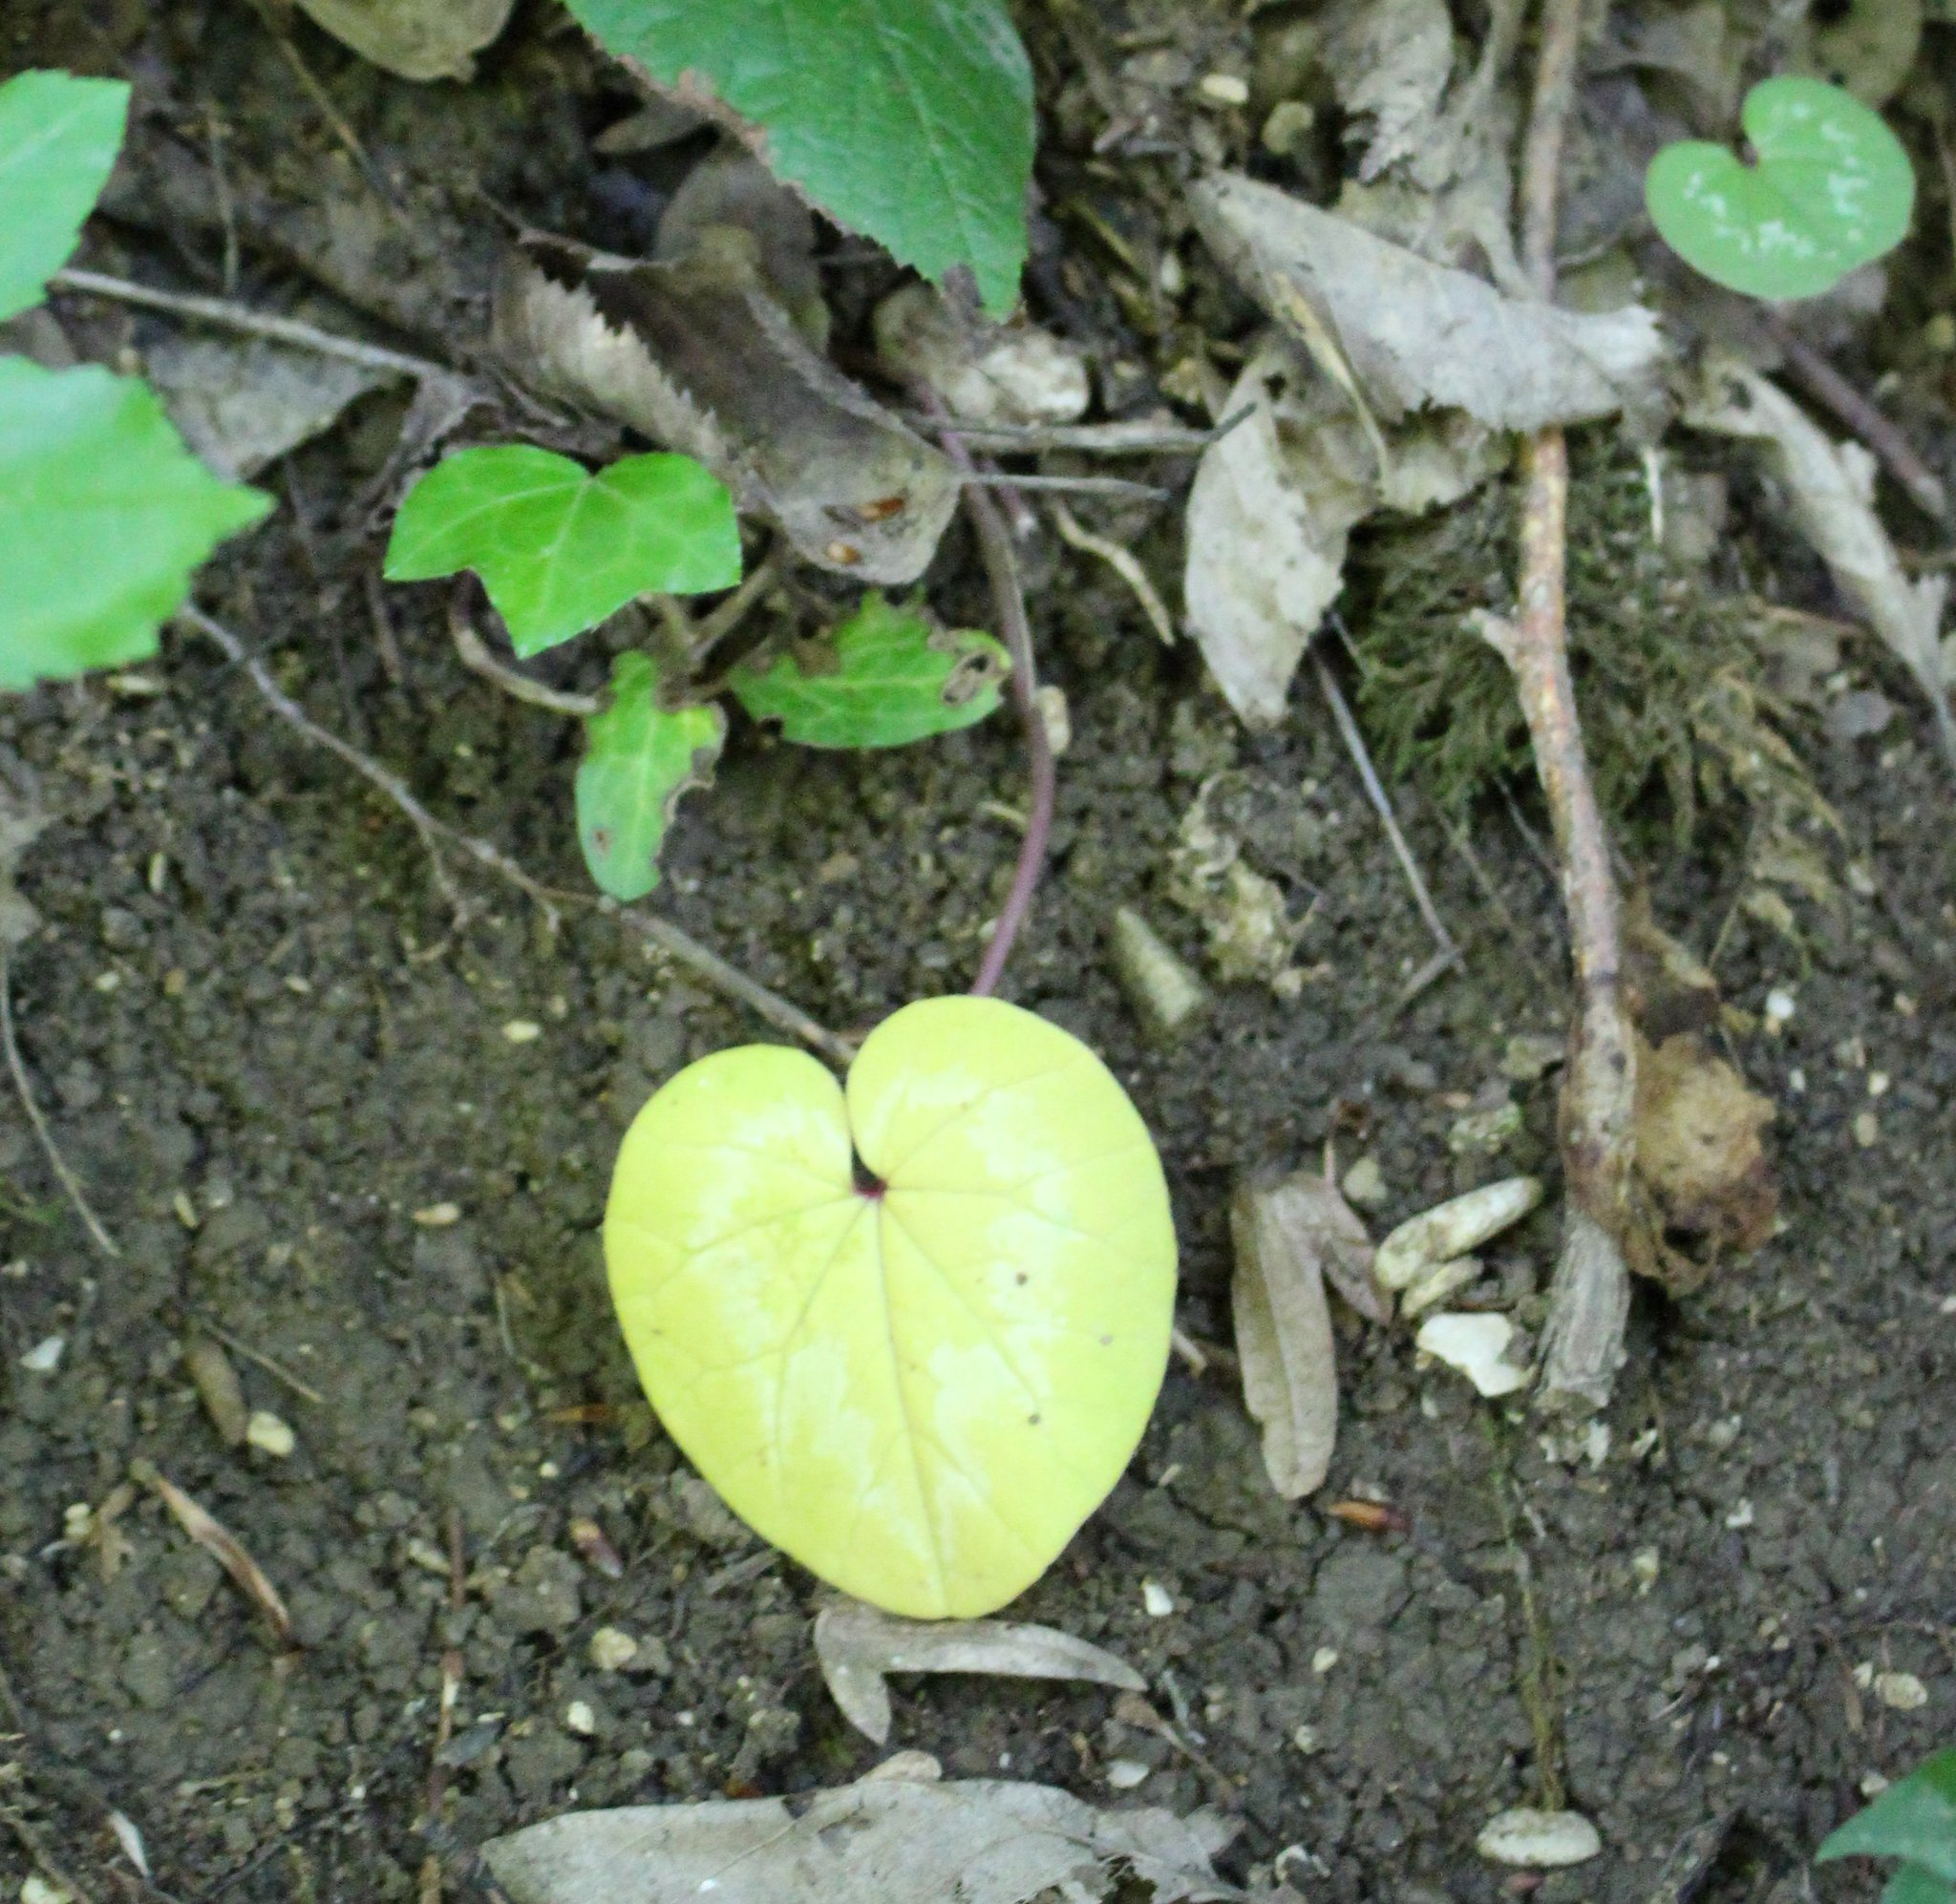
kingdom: Plantae
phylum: Tracheophyta
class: Magnoliopsida
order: Ericales
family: Primulaceae
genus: Cyclamen
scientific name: Cyclamen coum
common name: Eastern sowbread
